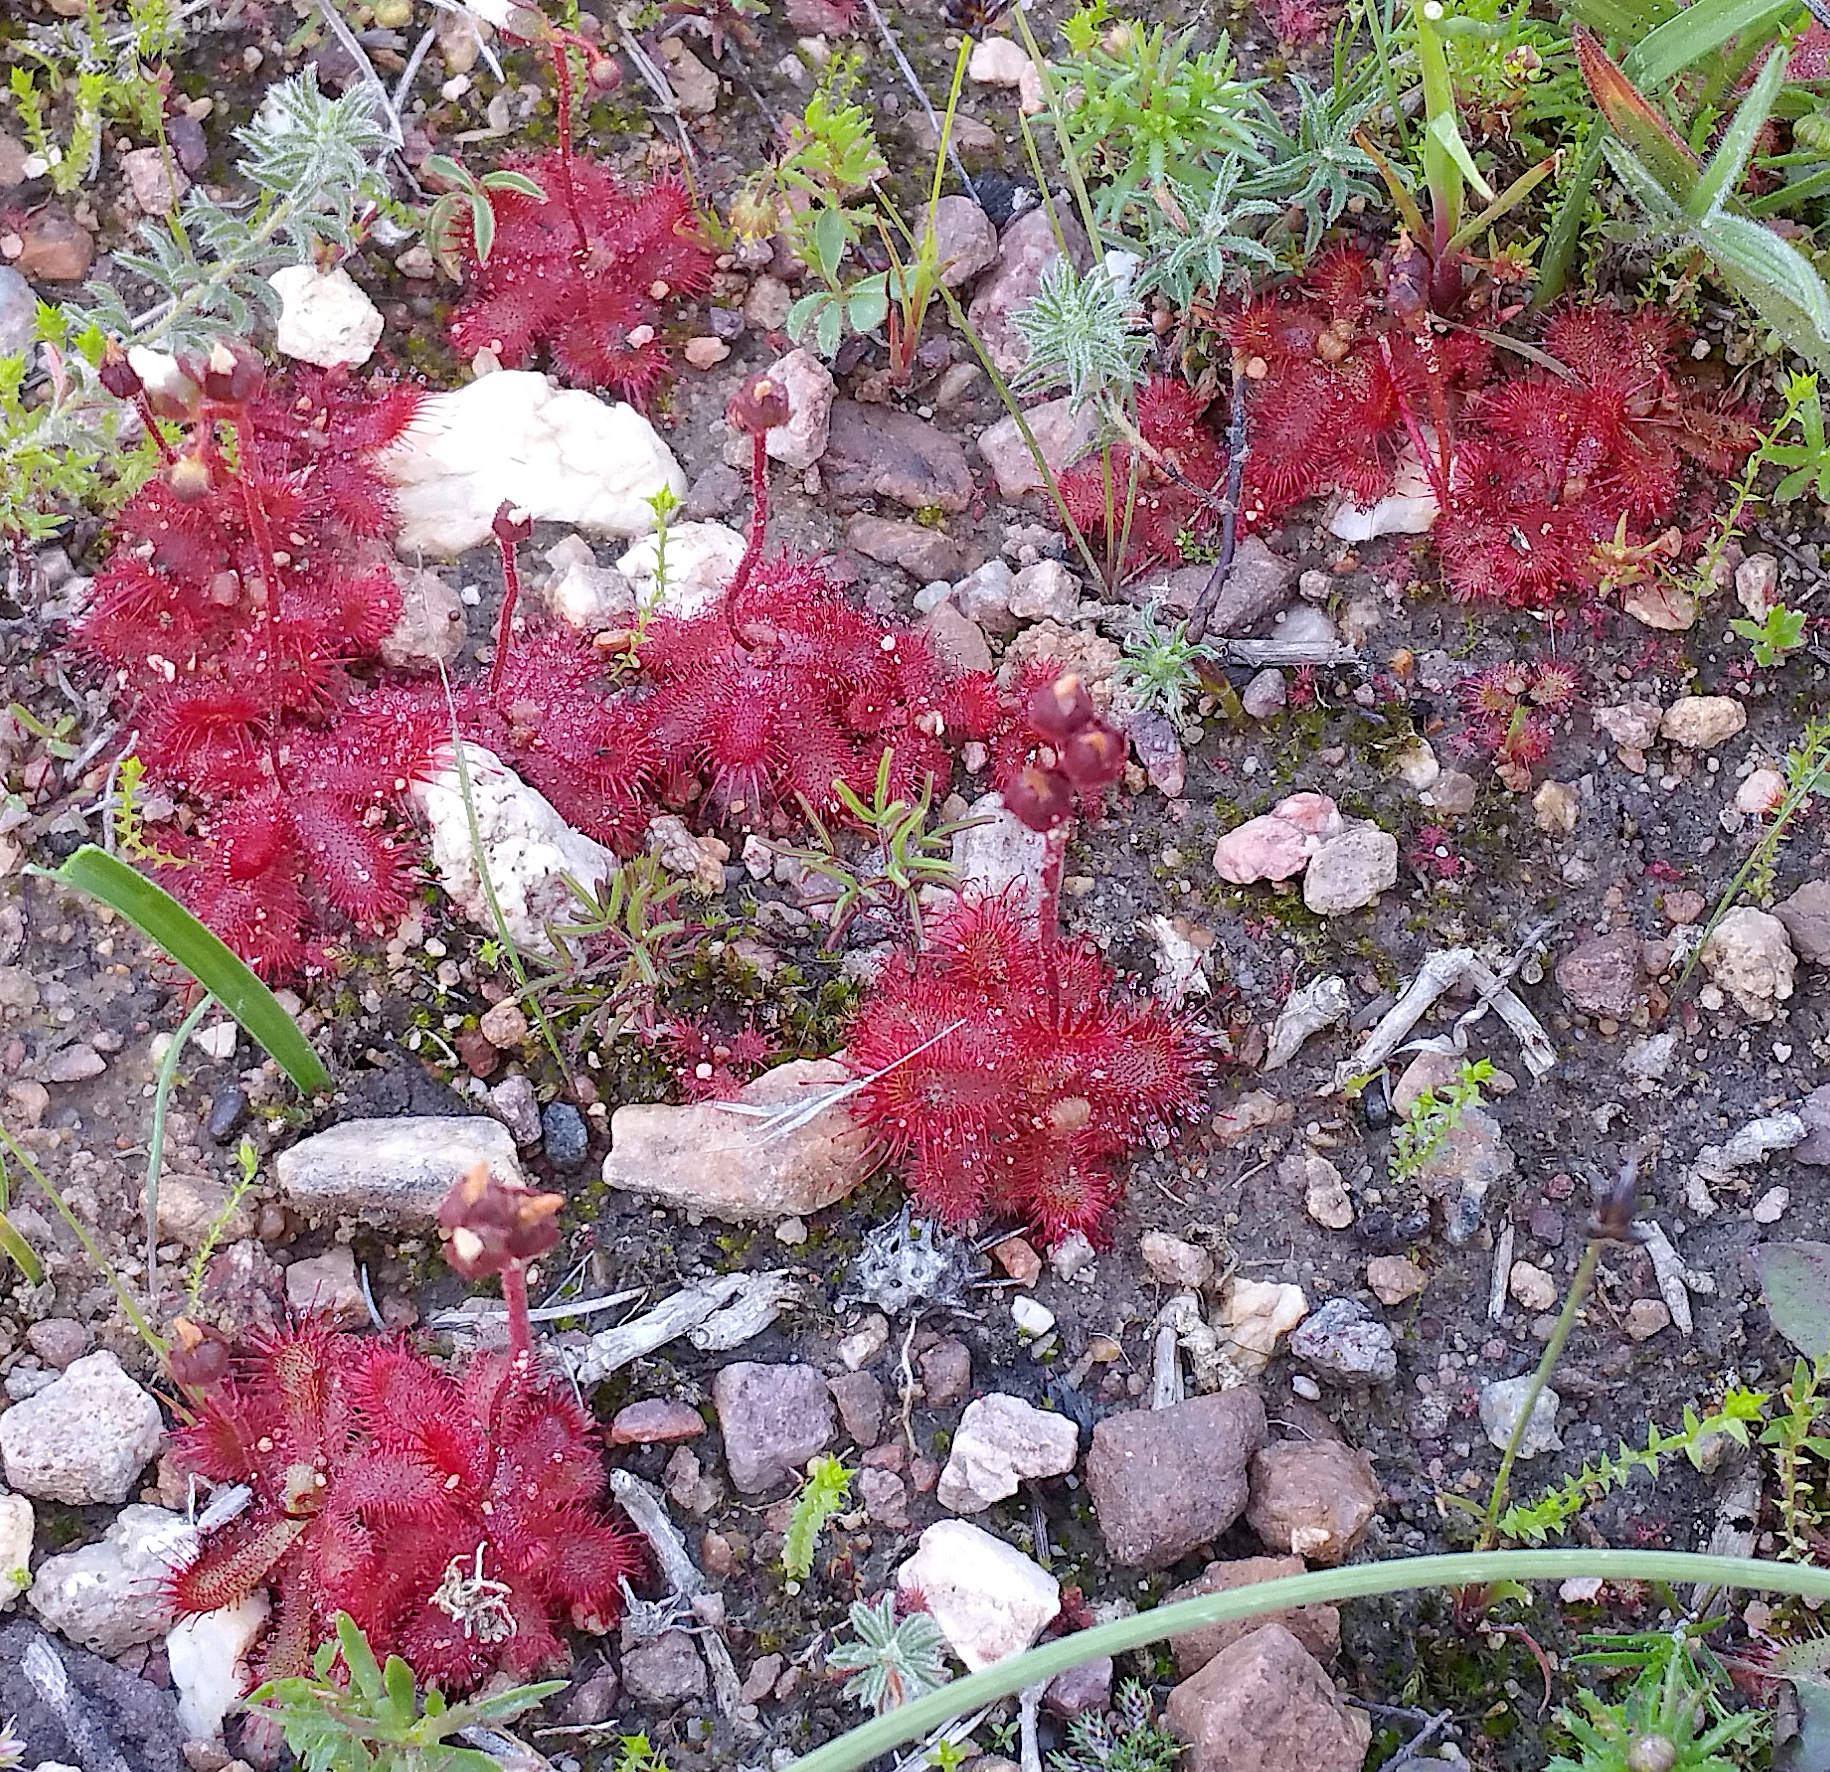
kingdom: Plantae
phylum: Tracheophyta
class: Magnoliopsida
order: Caryophyllales
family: Droseraceae
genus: Drosera
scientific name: Drosera trinervia
